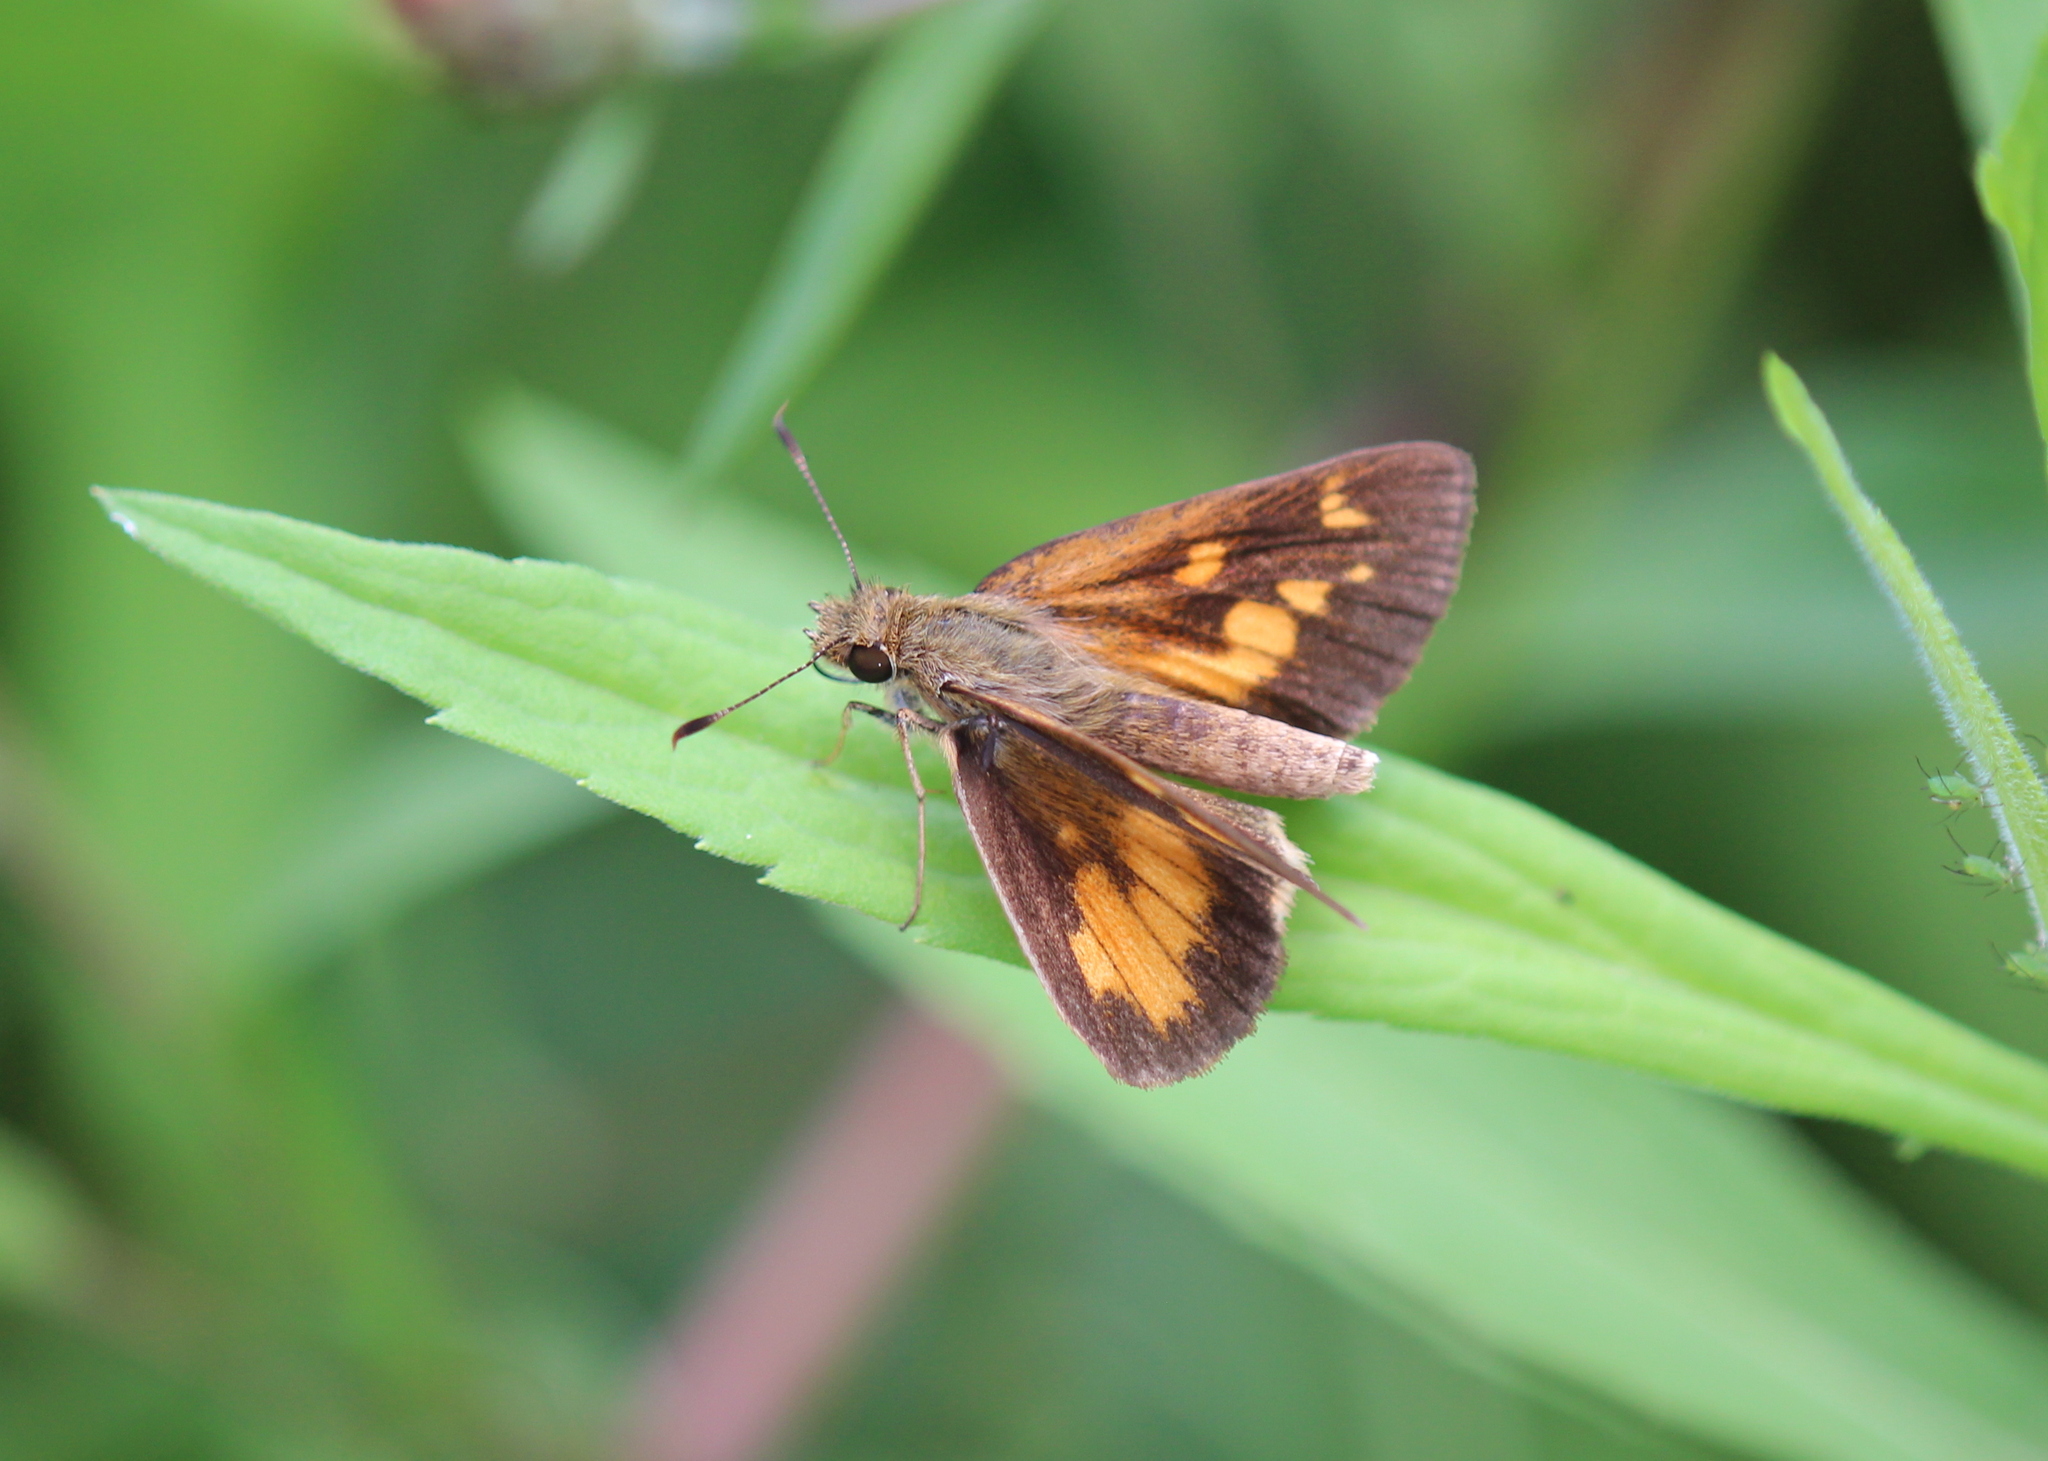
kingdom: Animalia
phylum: Arthropoda
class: Insecta
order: Lepidoptera
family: Hesperiidae
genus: Poanes
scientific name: Poanes viator
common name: Broad-winged skipper
